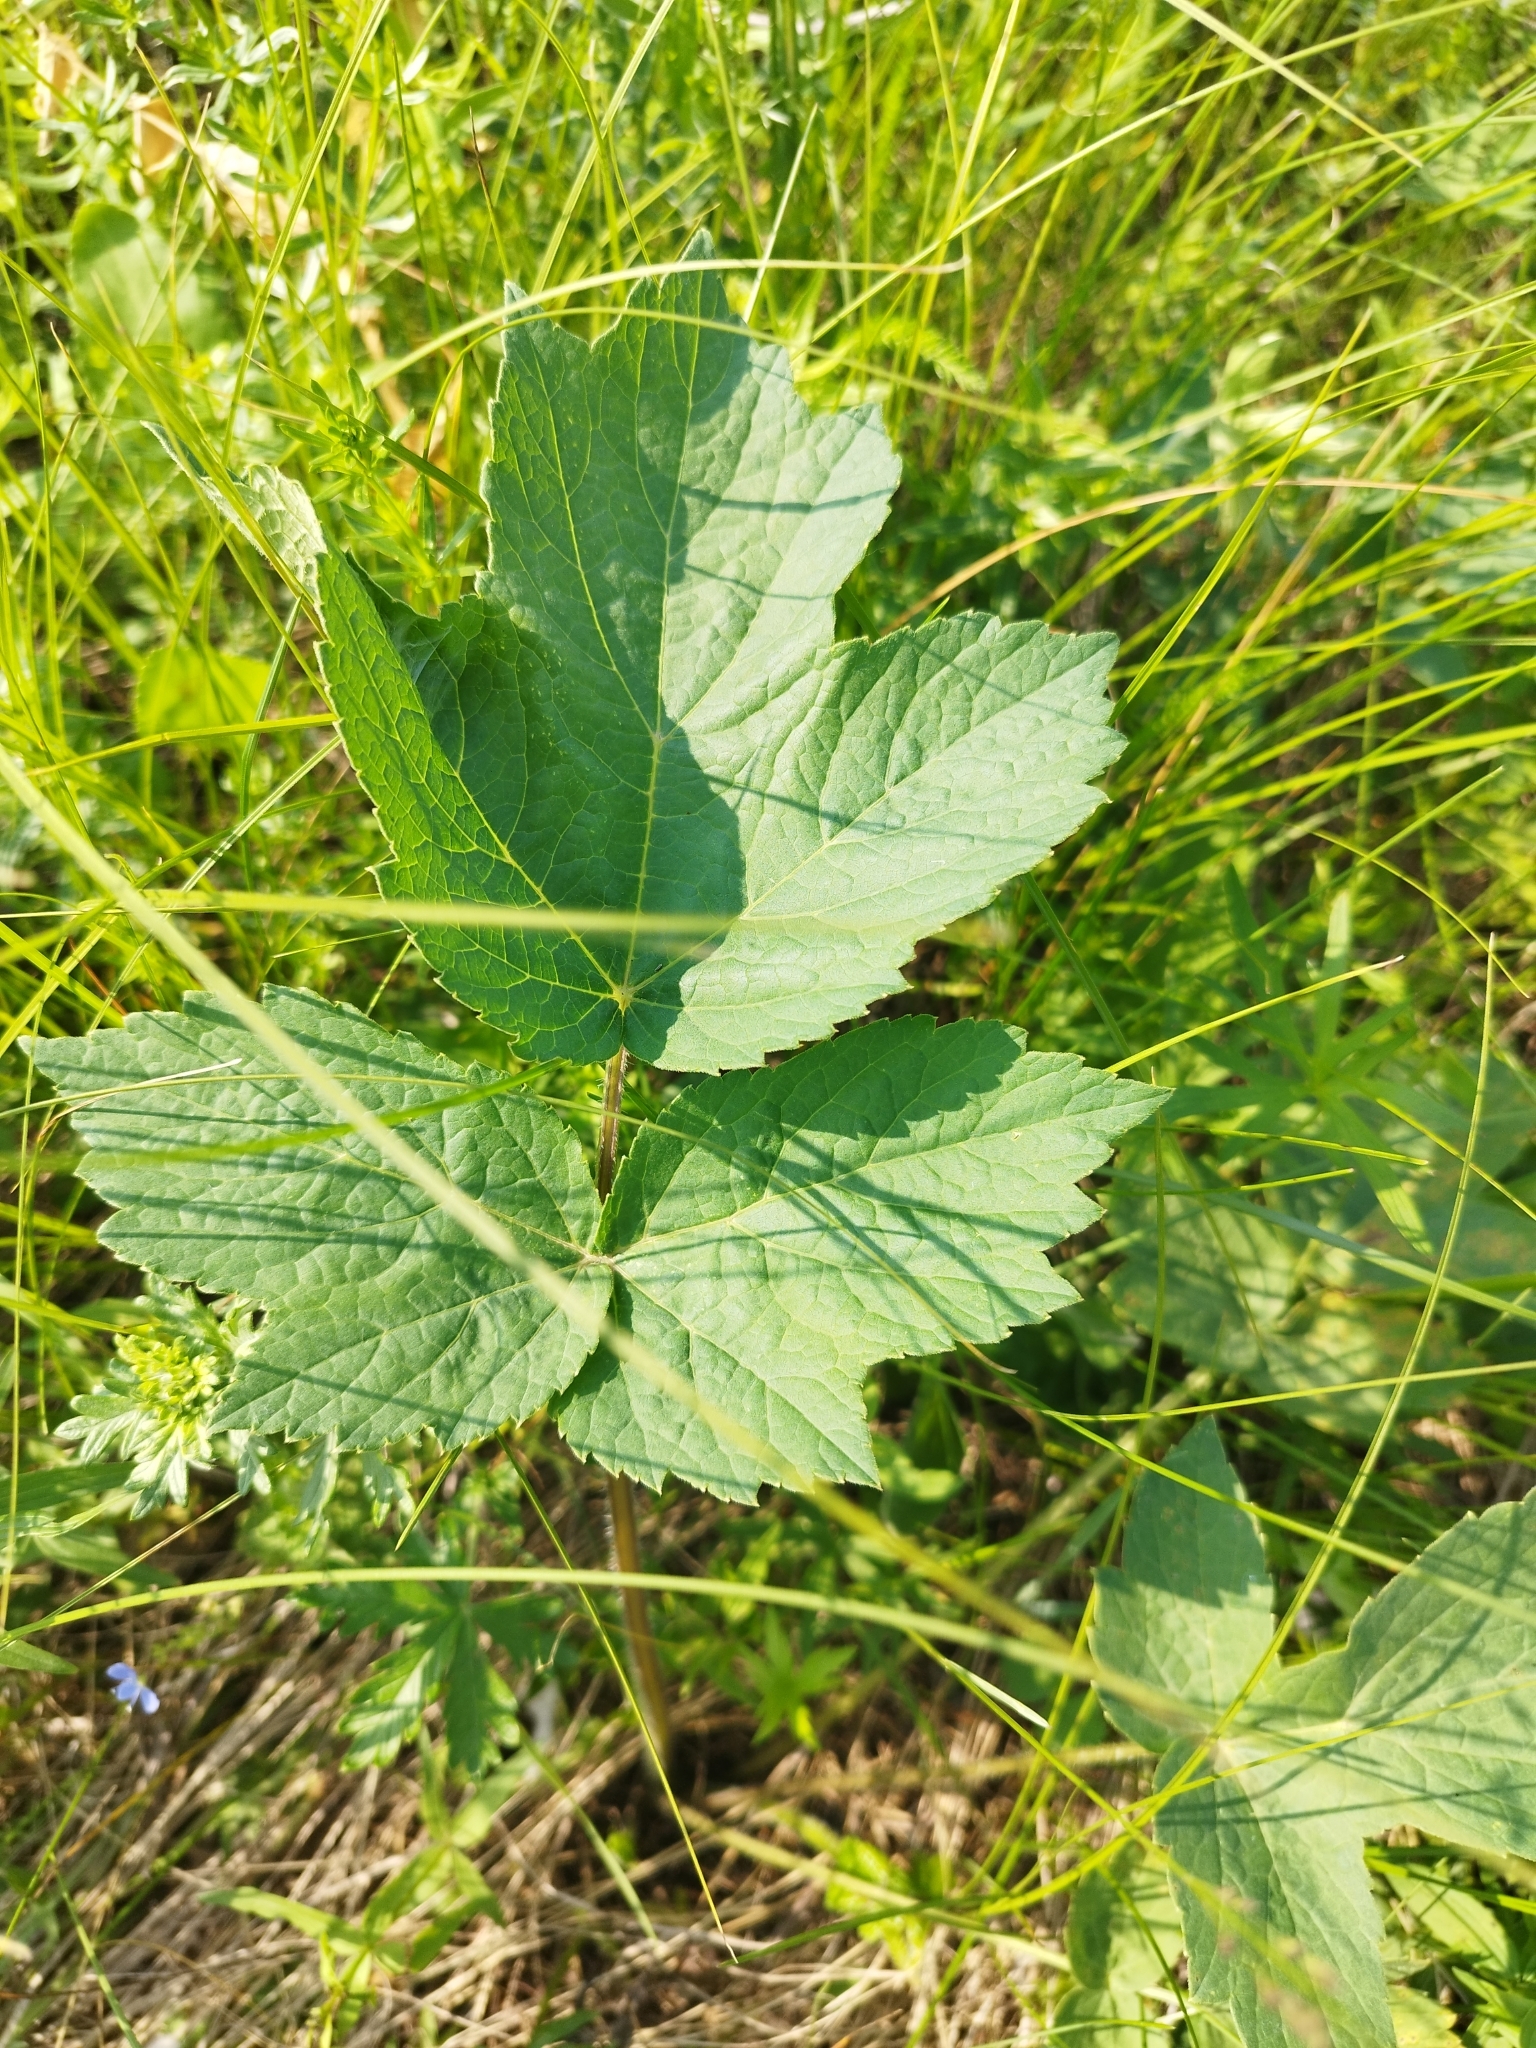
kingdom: Plantae
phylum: Tracheophyta
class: Magnoliopsida
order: Apiales
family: Apiaceae
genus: Heracleum
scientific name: Heracleum sphondylium
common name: Hogweed
